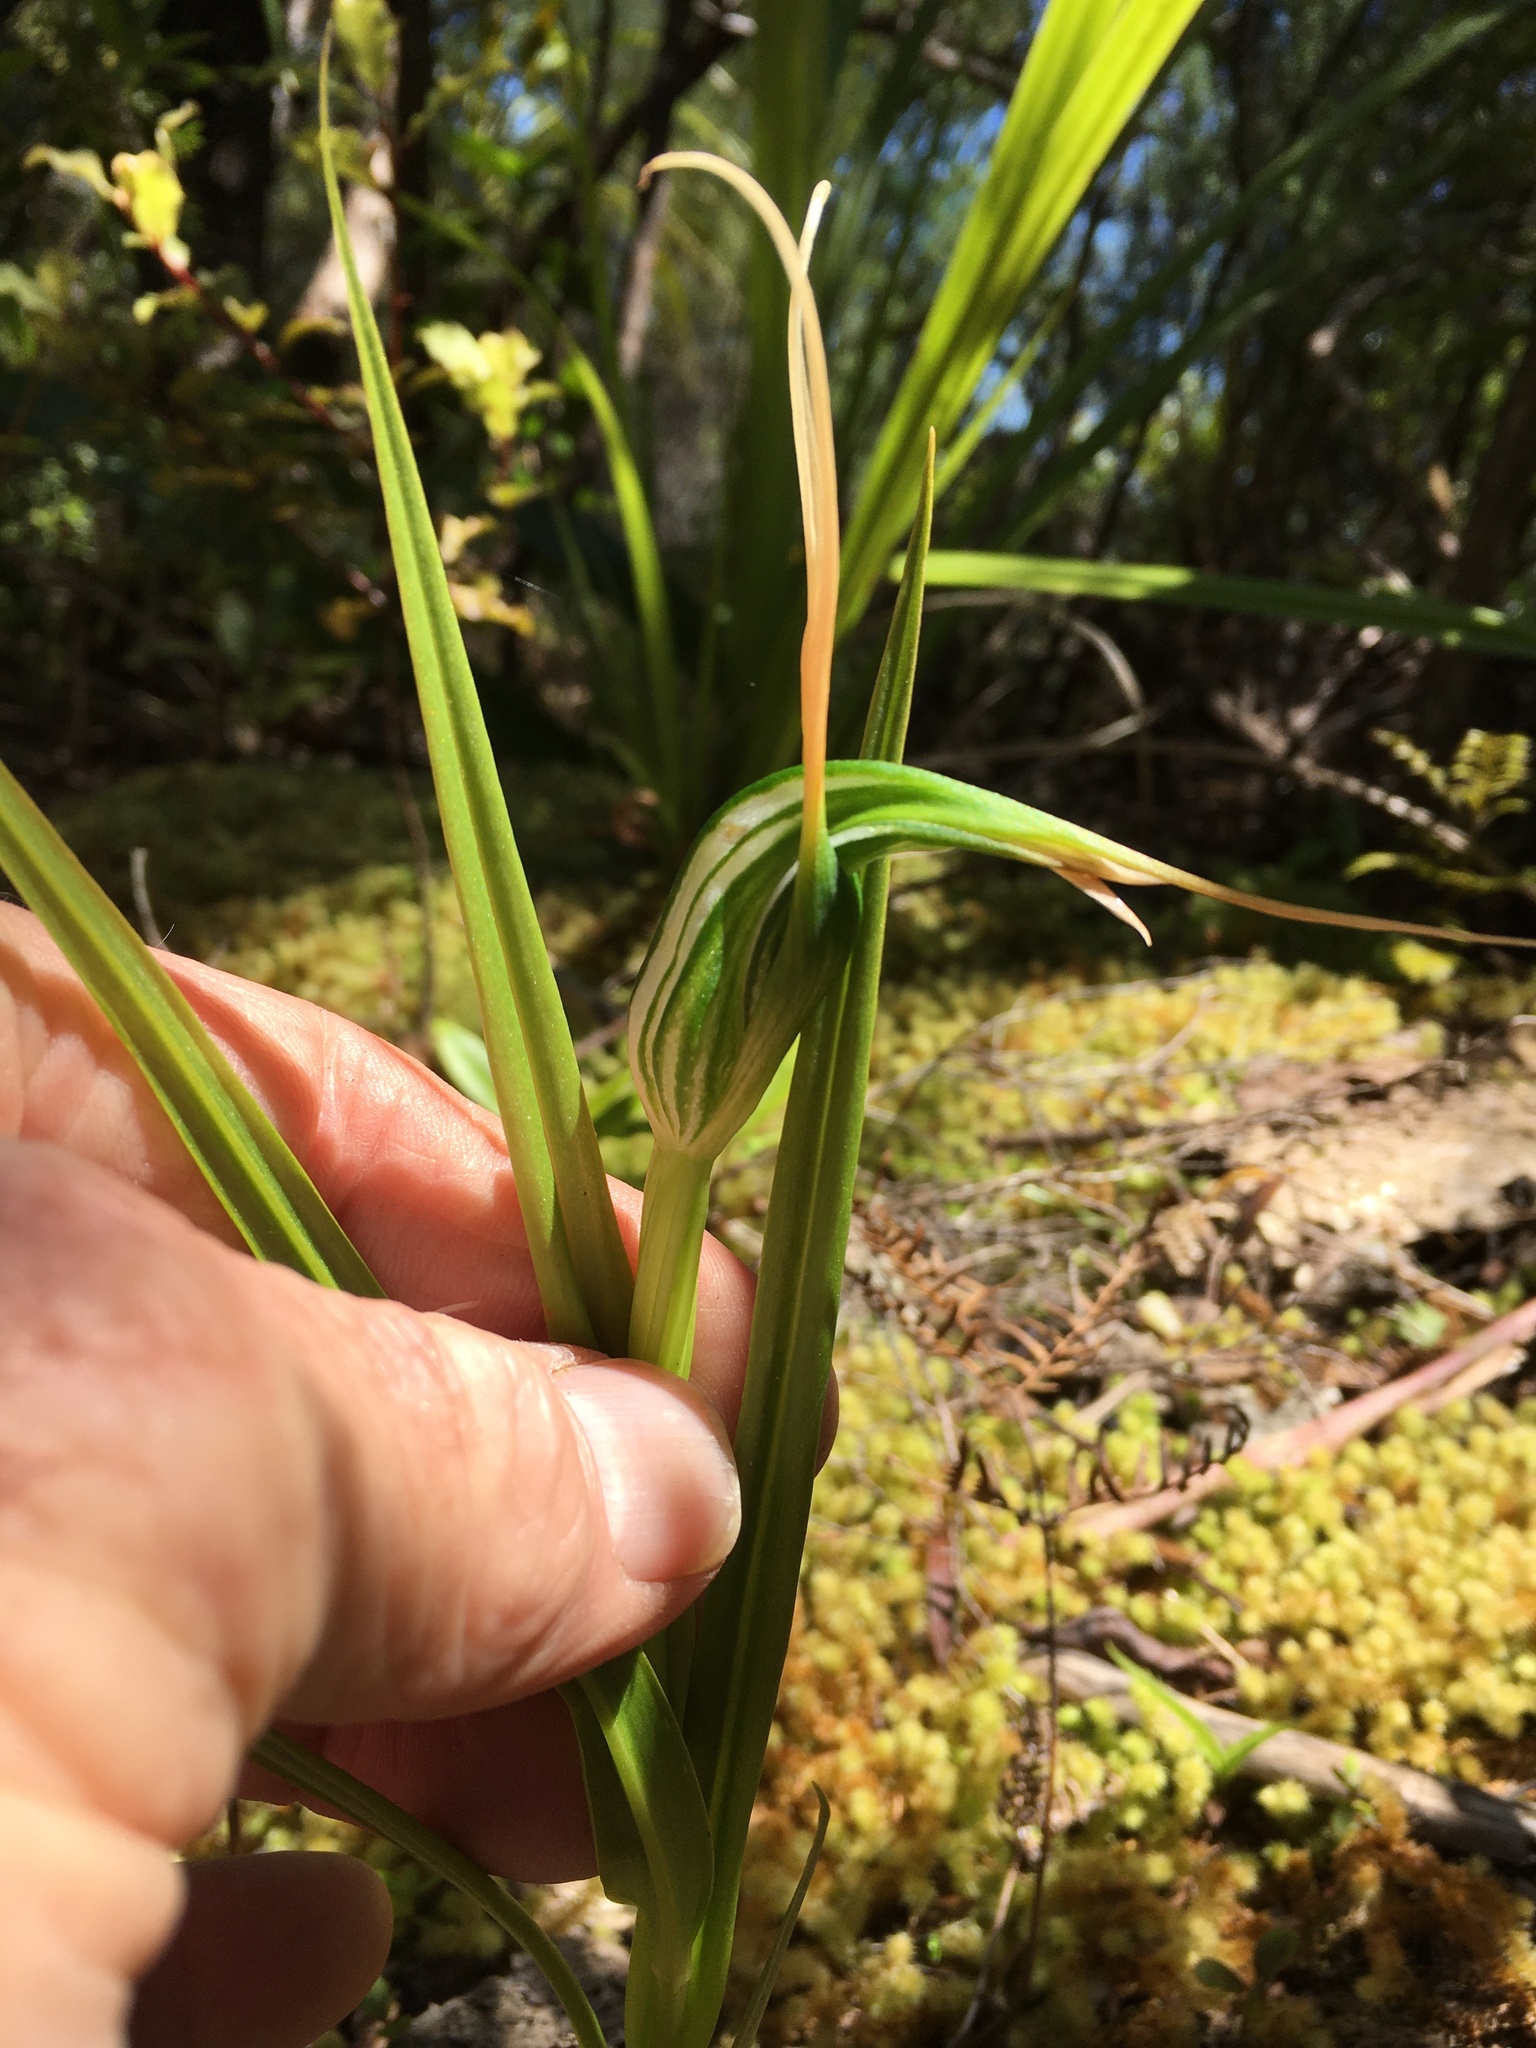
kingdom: Plantae
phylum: Tracheophyta
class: Liliopsida
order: Asparagales
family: Orchidaceae
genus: Pterostylis
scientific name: Pterostylis banksii
